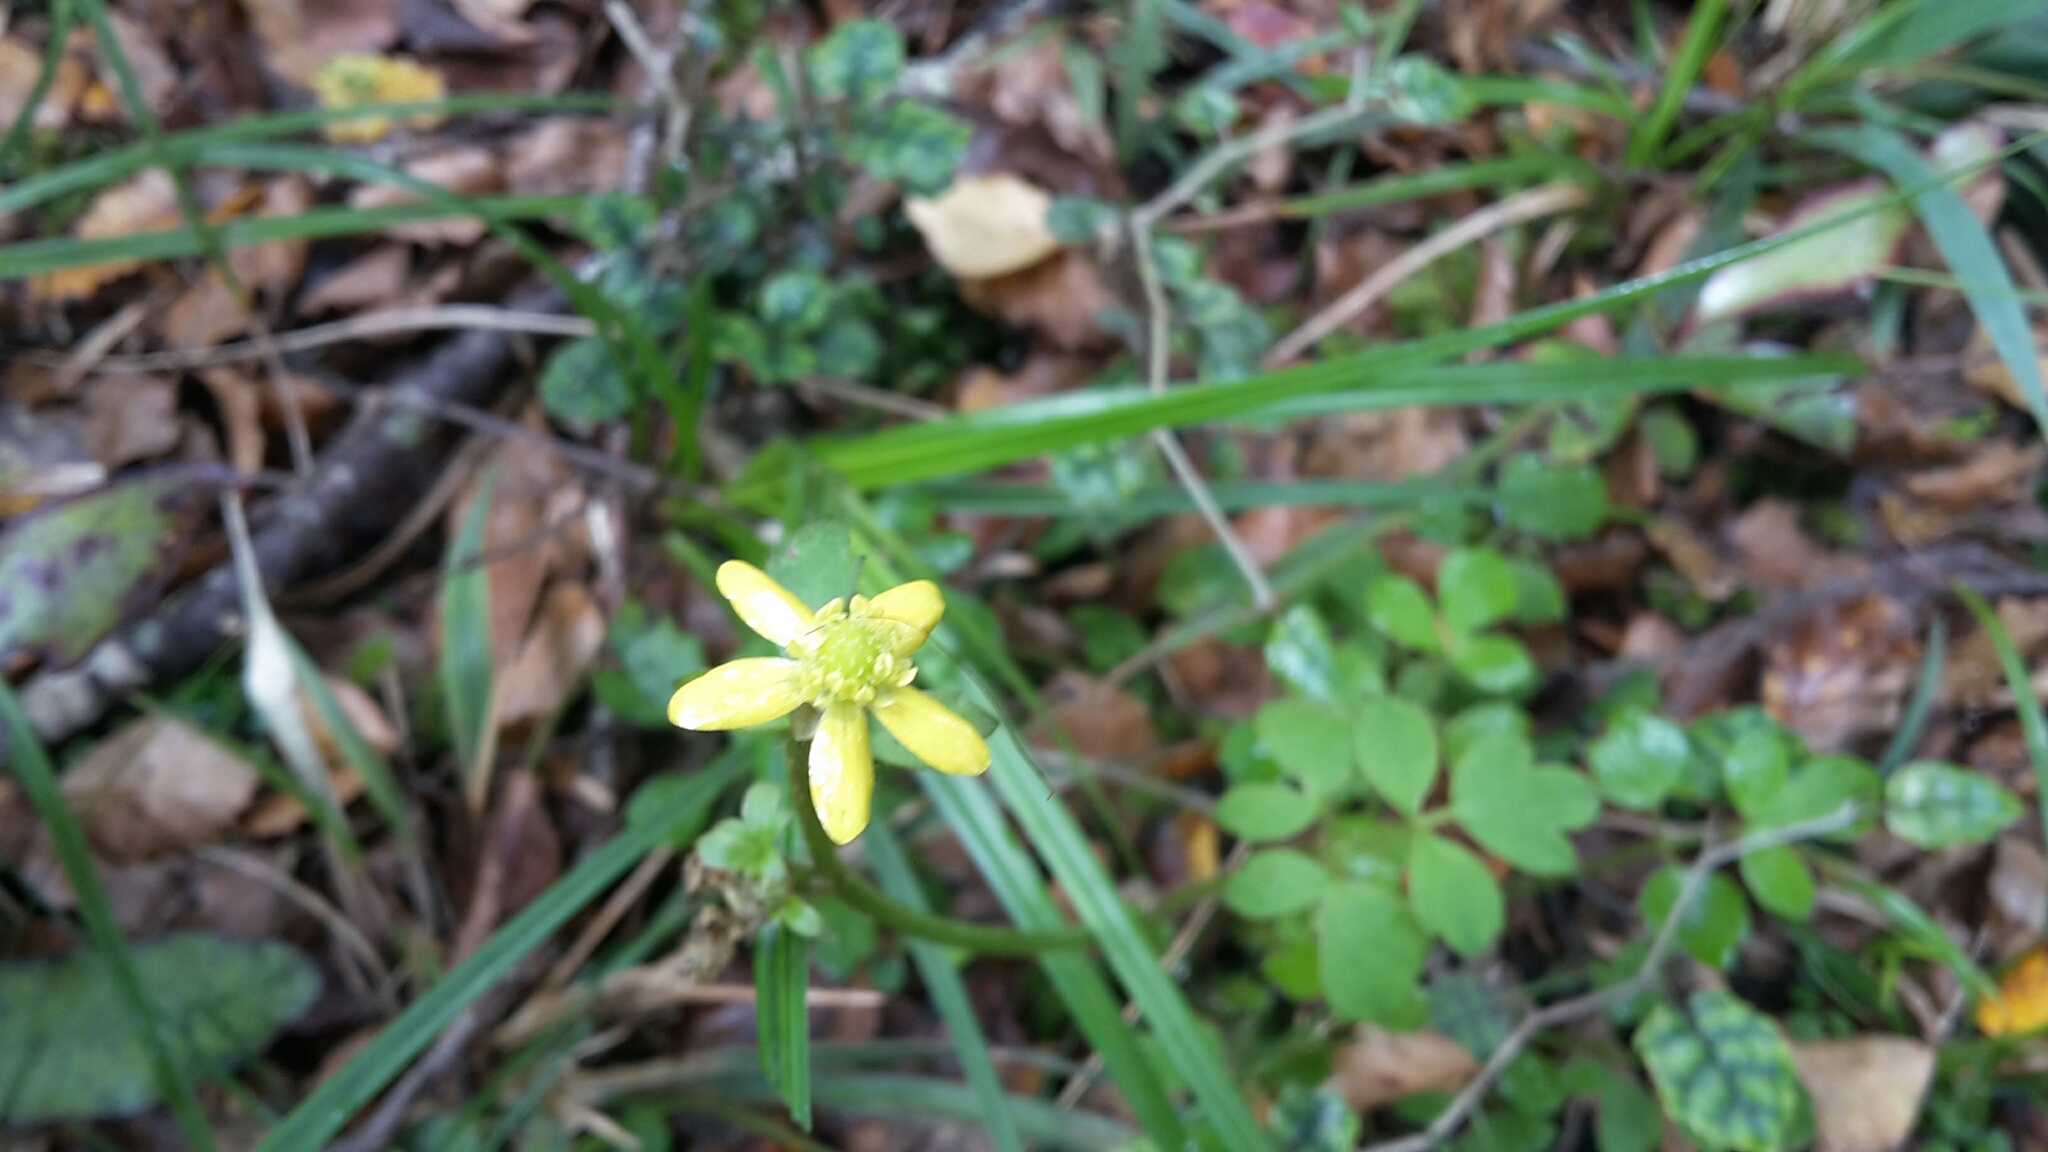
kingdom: Plantae
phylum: Tracheophyta
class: Magnoliopsida
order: Ranunculales
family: Ranunculaceae
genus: Ranunculus
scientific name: Ranunculus reflexus
